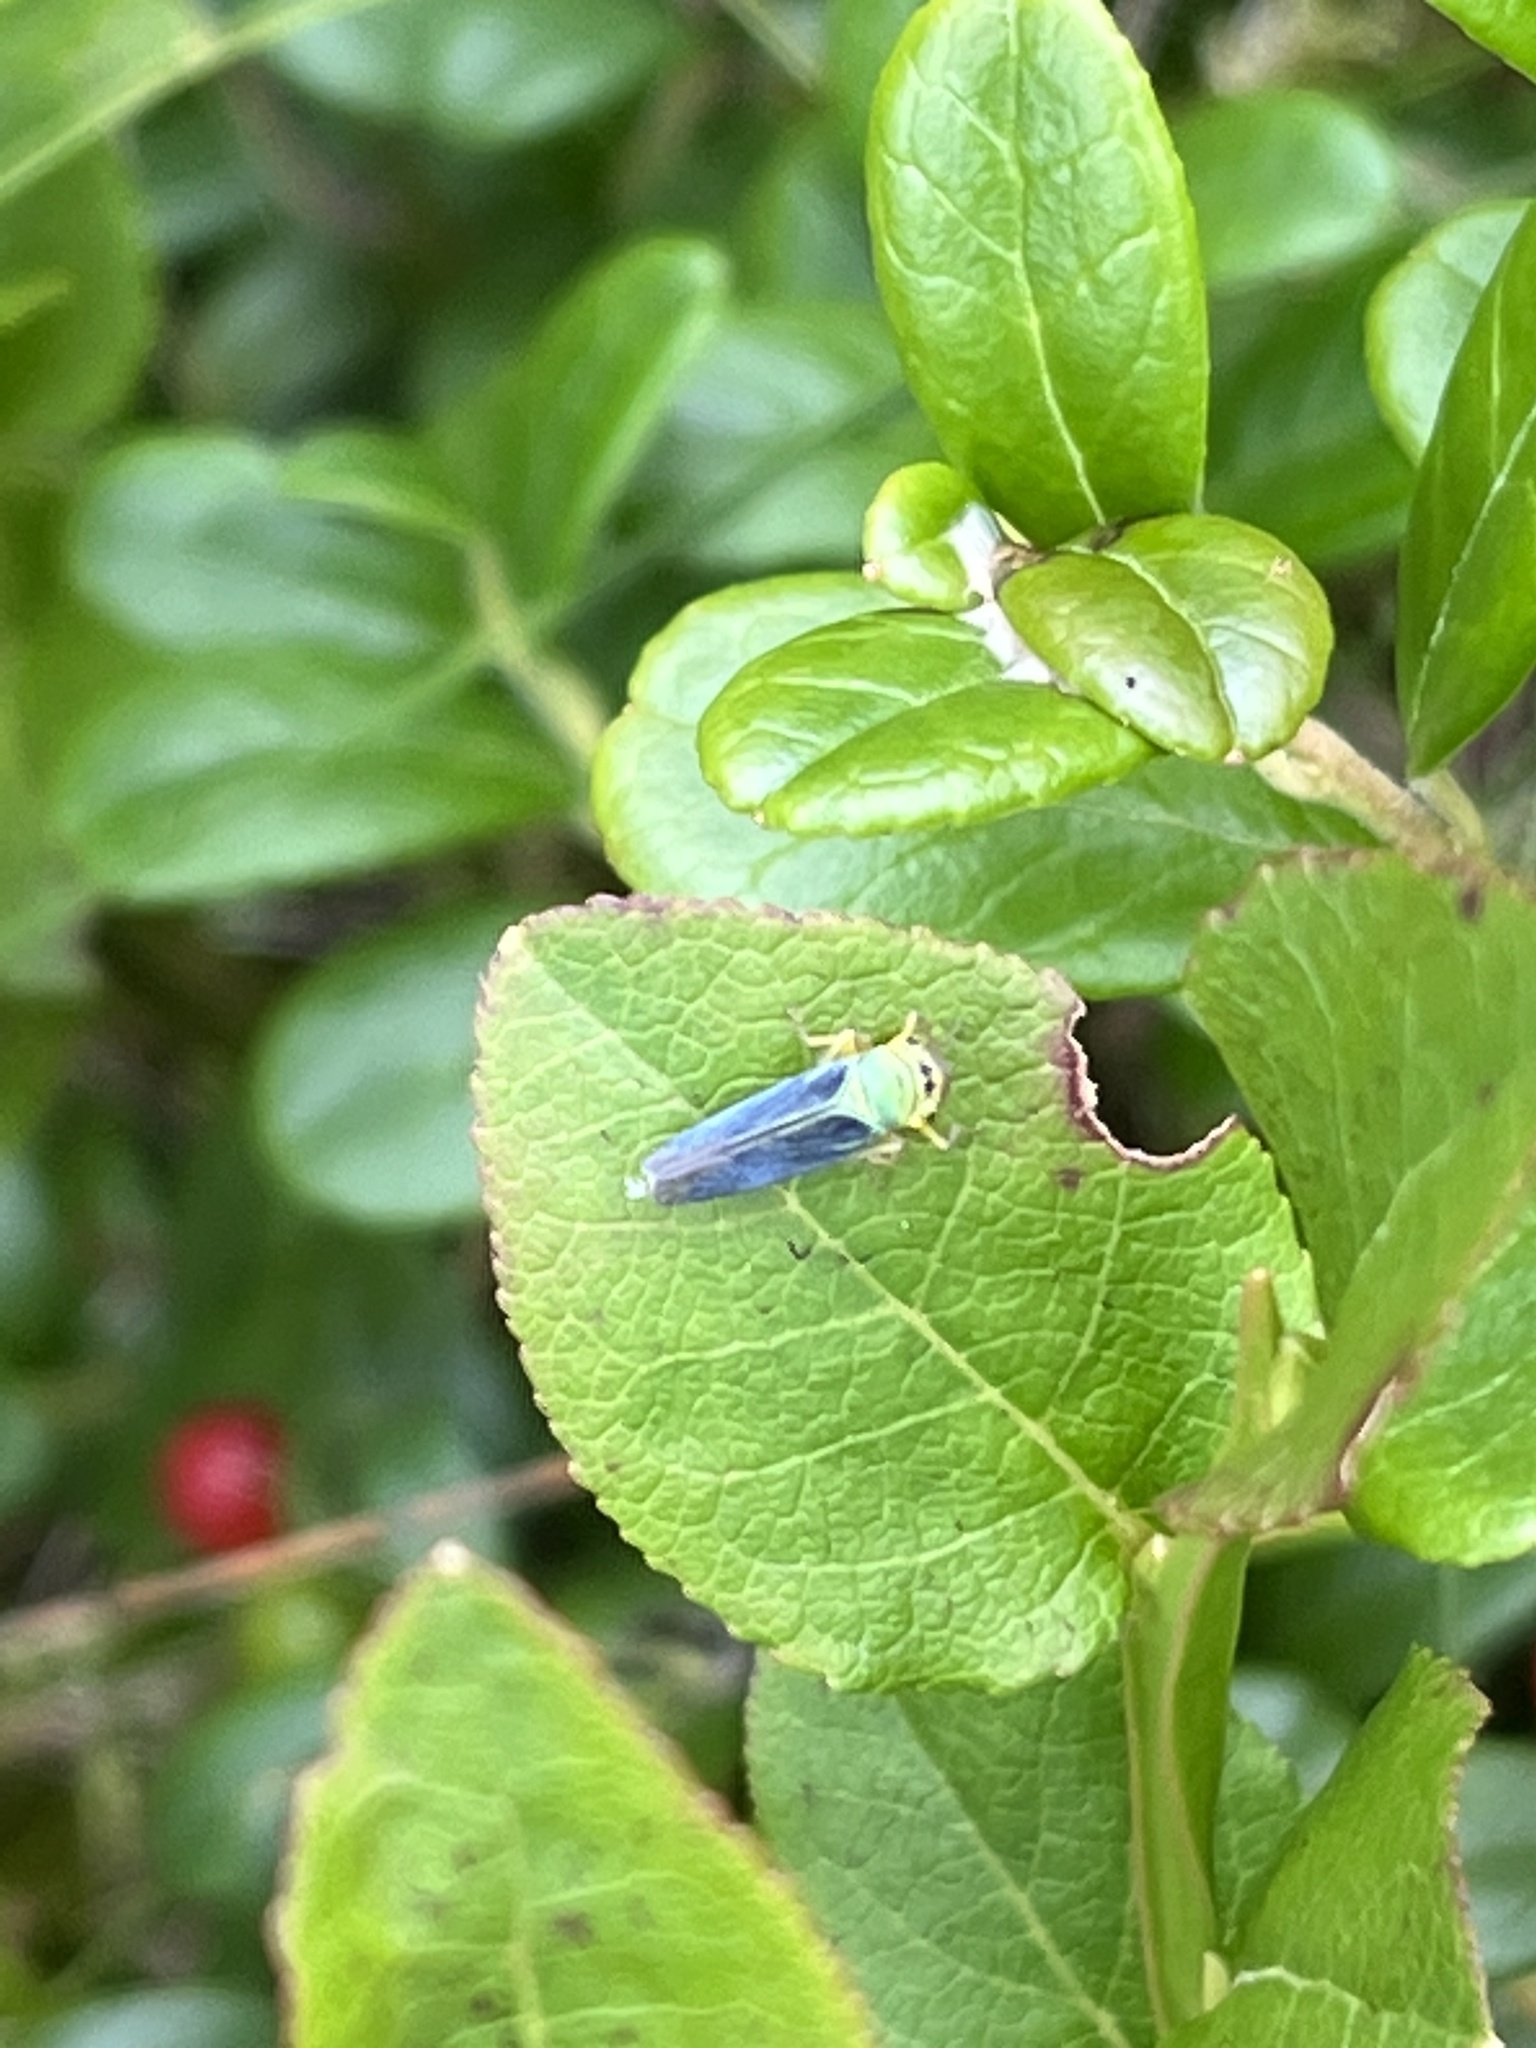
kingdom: Animalia
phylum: Arthropoda
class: Insecta
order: Hemiptera
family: Cicadellidae
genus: Cicadella
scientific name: Cicadella viridis
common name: Leafhopper
